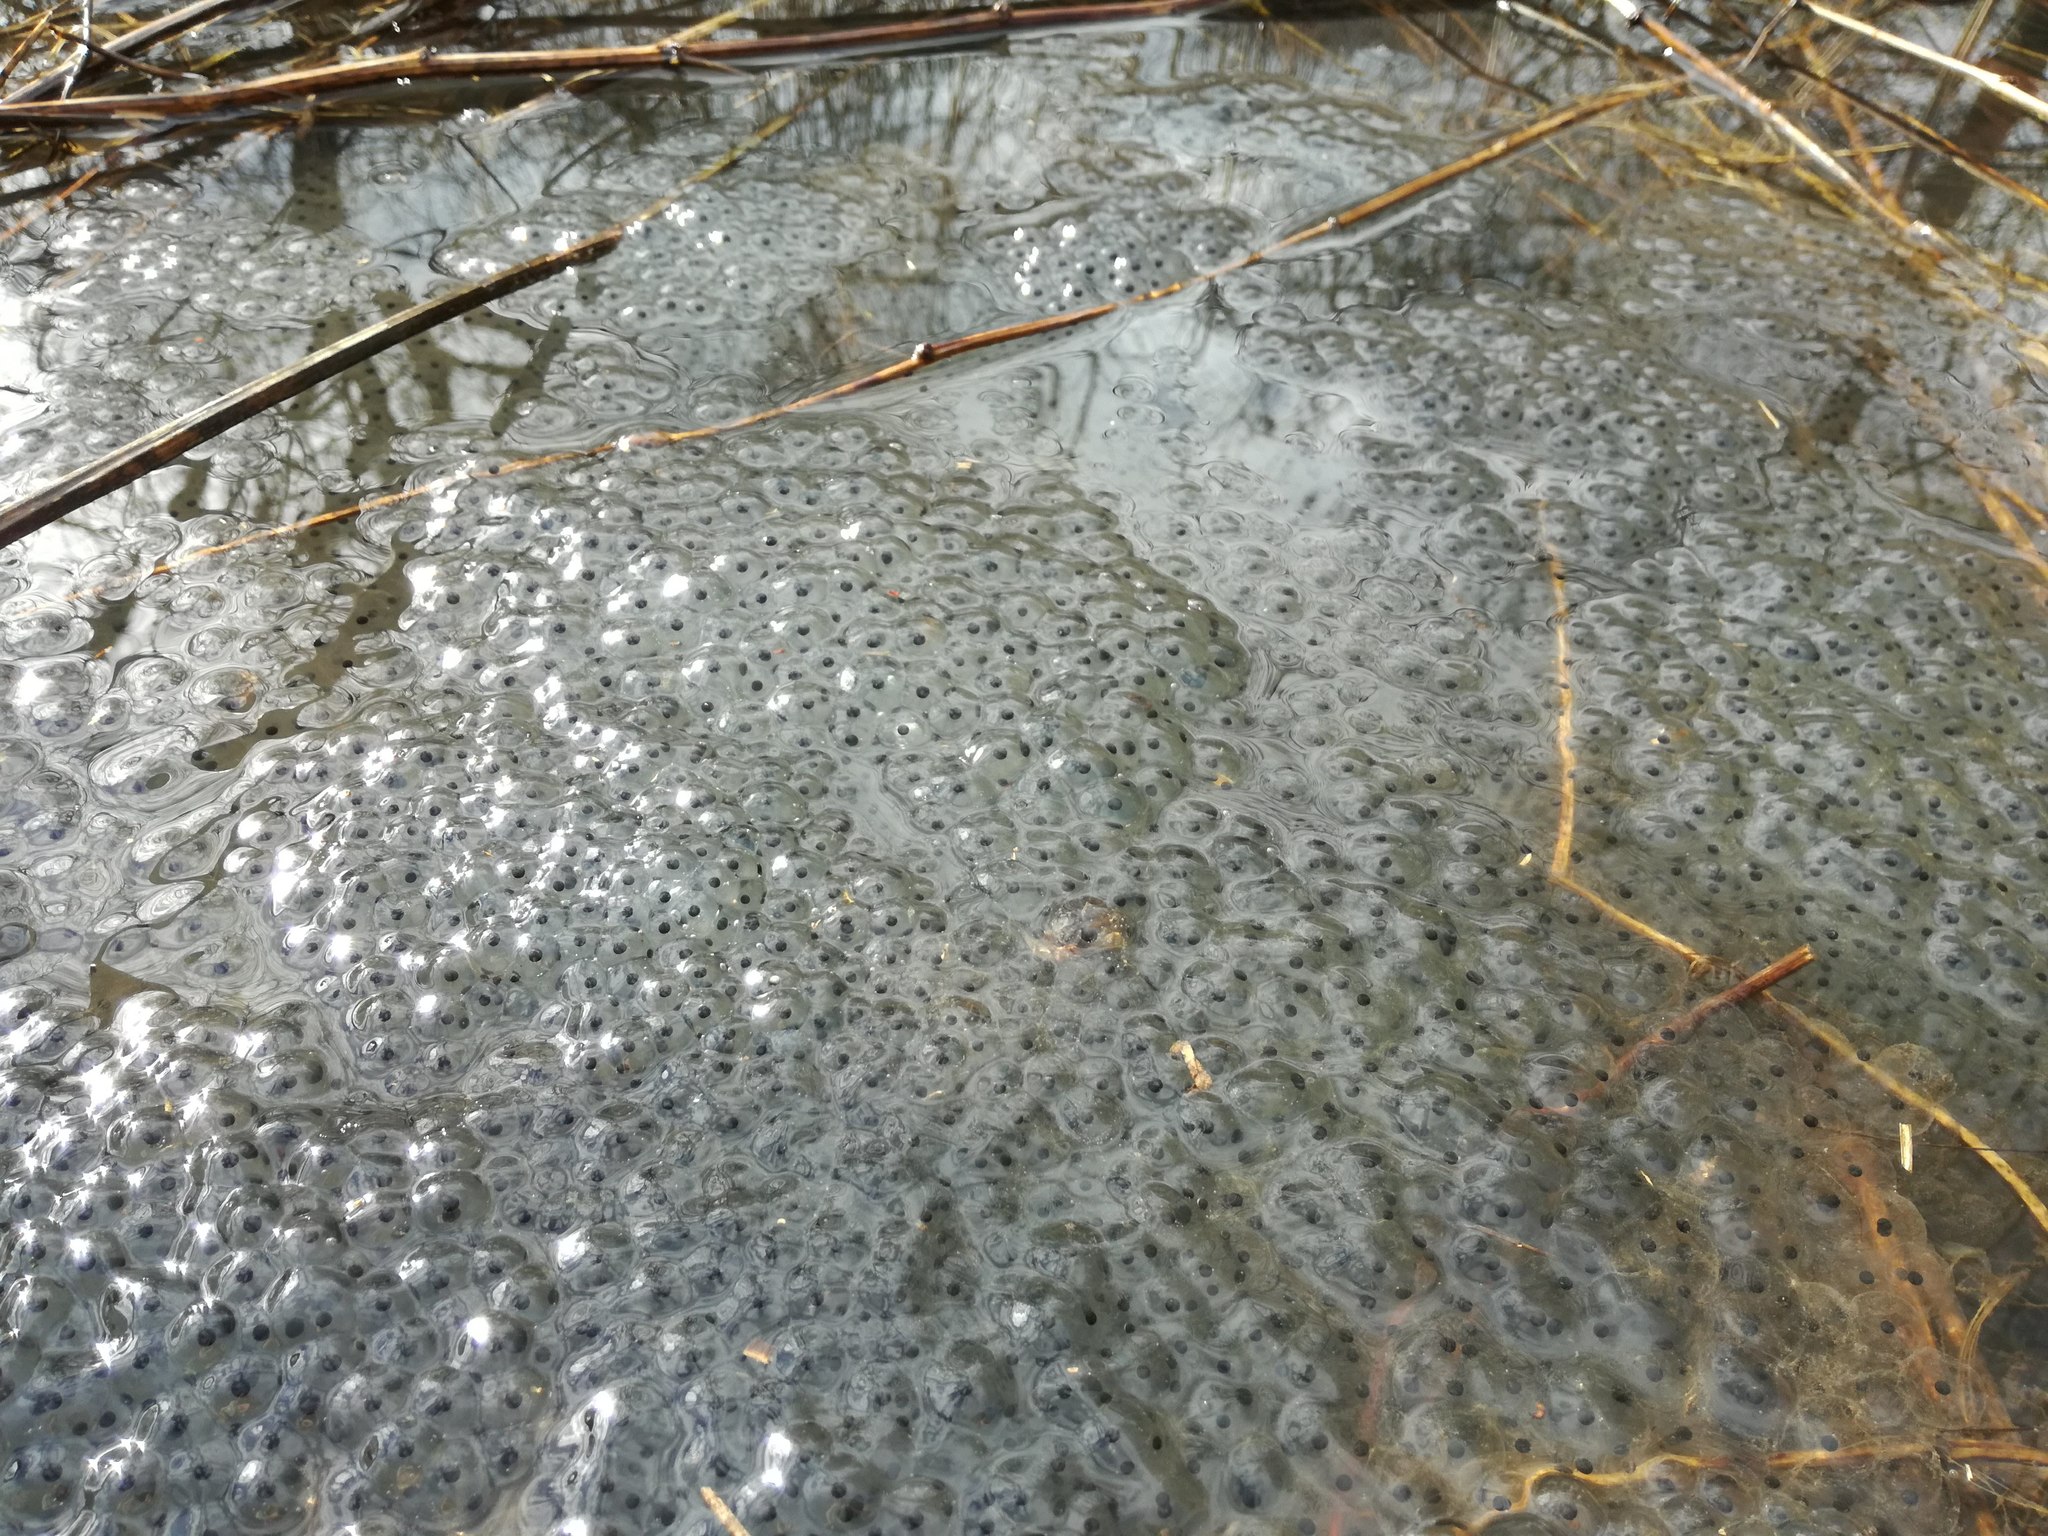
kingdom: Animalia
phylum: Chordata
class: Amphibia
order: Anura
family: Ranidae
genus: Rana
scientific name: Rana temporaria
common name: Common frog
